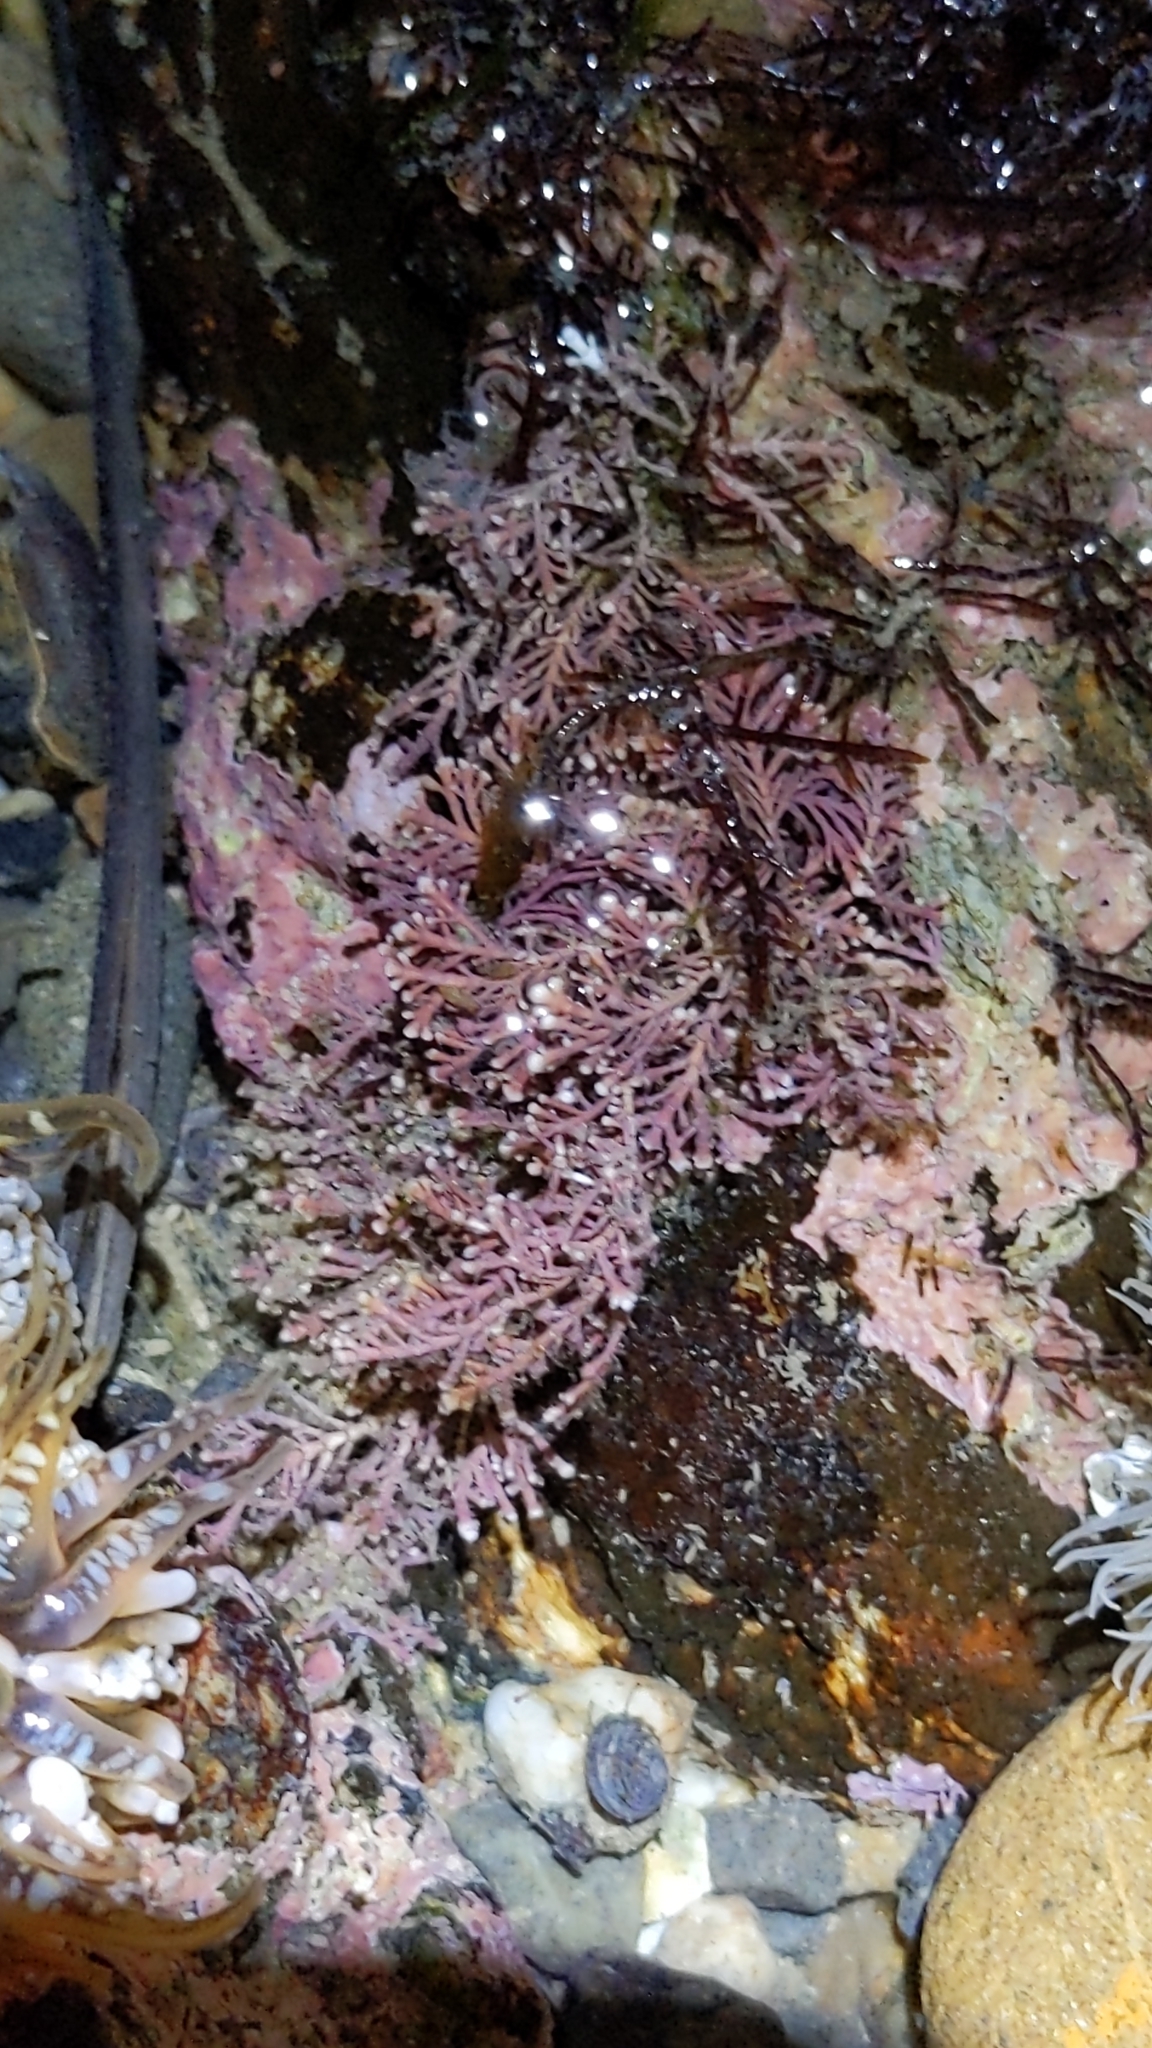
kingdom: Plantae
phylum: Rhodophyta
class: Florideophyceae
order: Corallinales
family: Corallinaceae
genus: Corallina
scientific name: Corallina officinalis
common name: Coral weed
